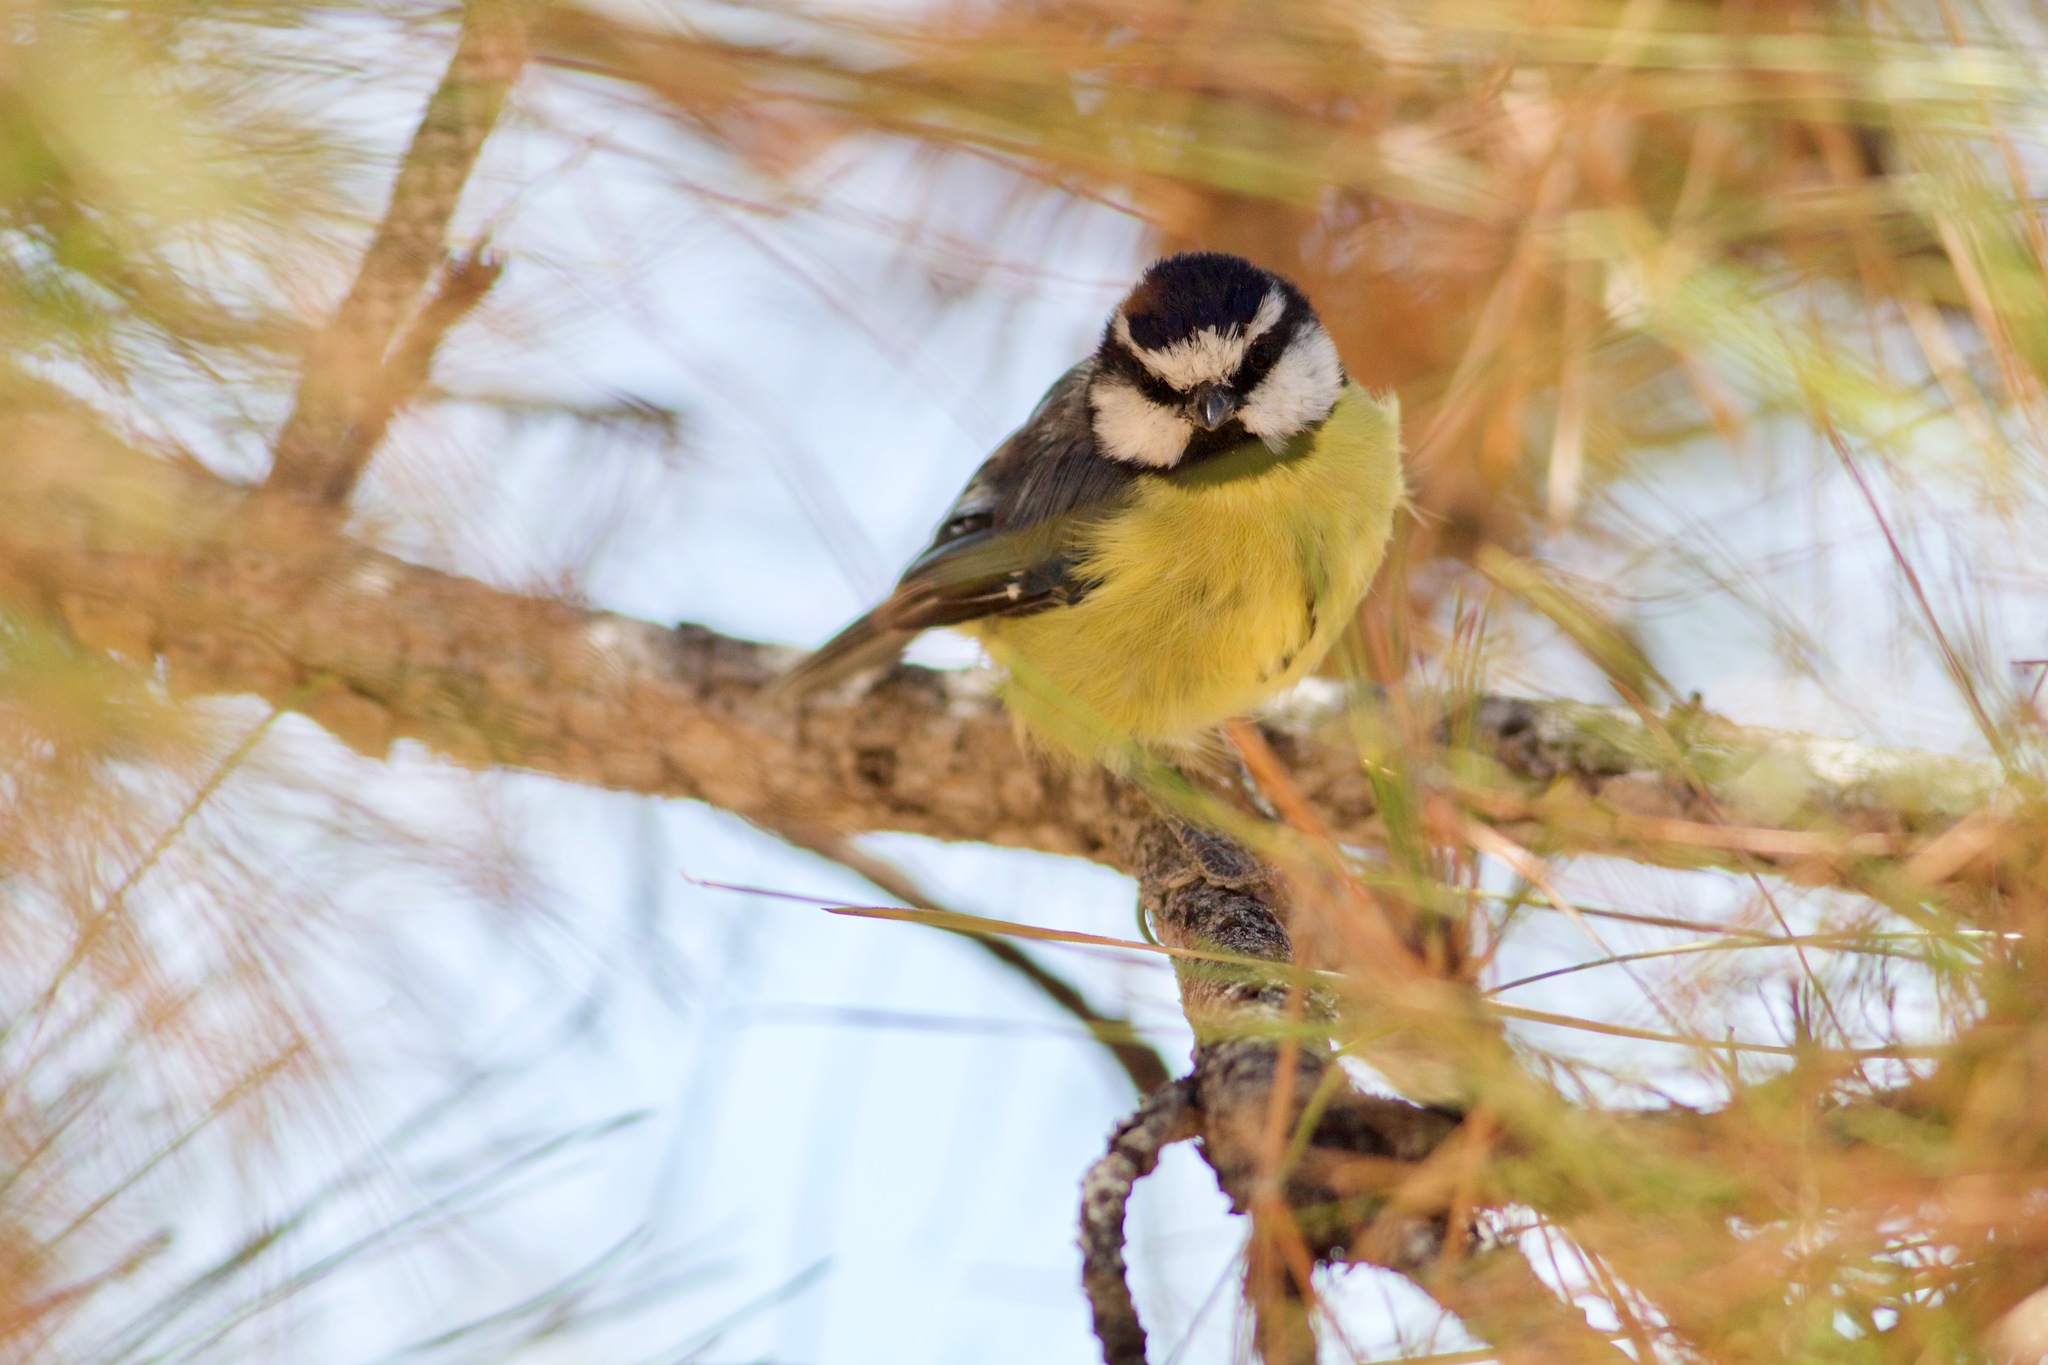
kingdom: Animalia
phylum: Chordata
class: Aves
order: Passeriformes
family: Paridae
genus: Cyanistes
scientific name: Cyanistes teneriffae
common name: African blue tit
